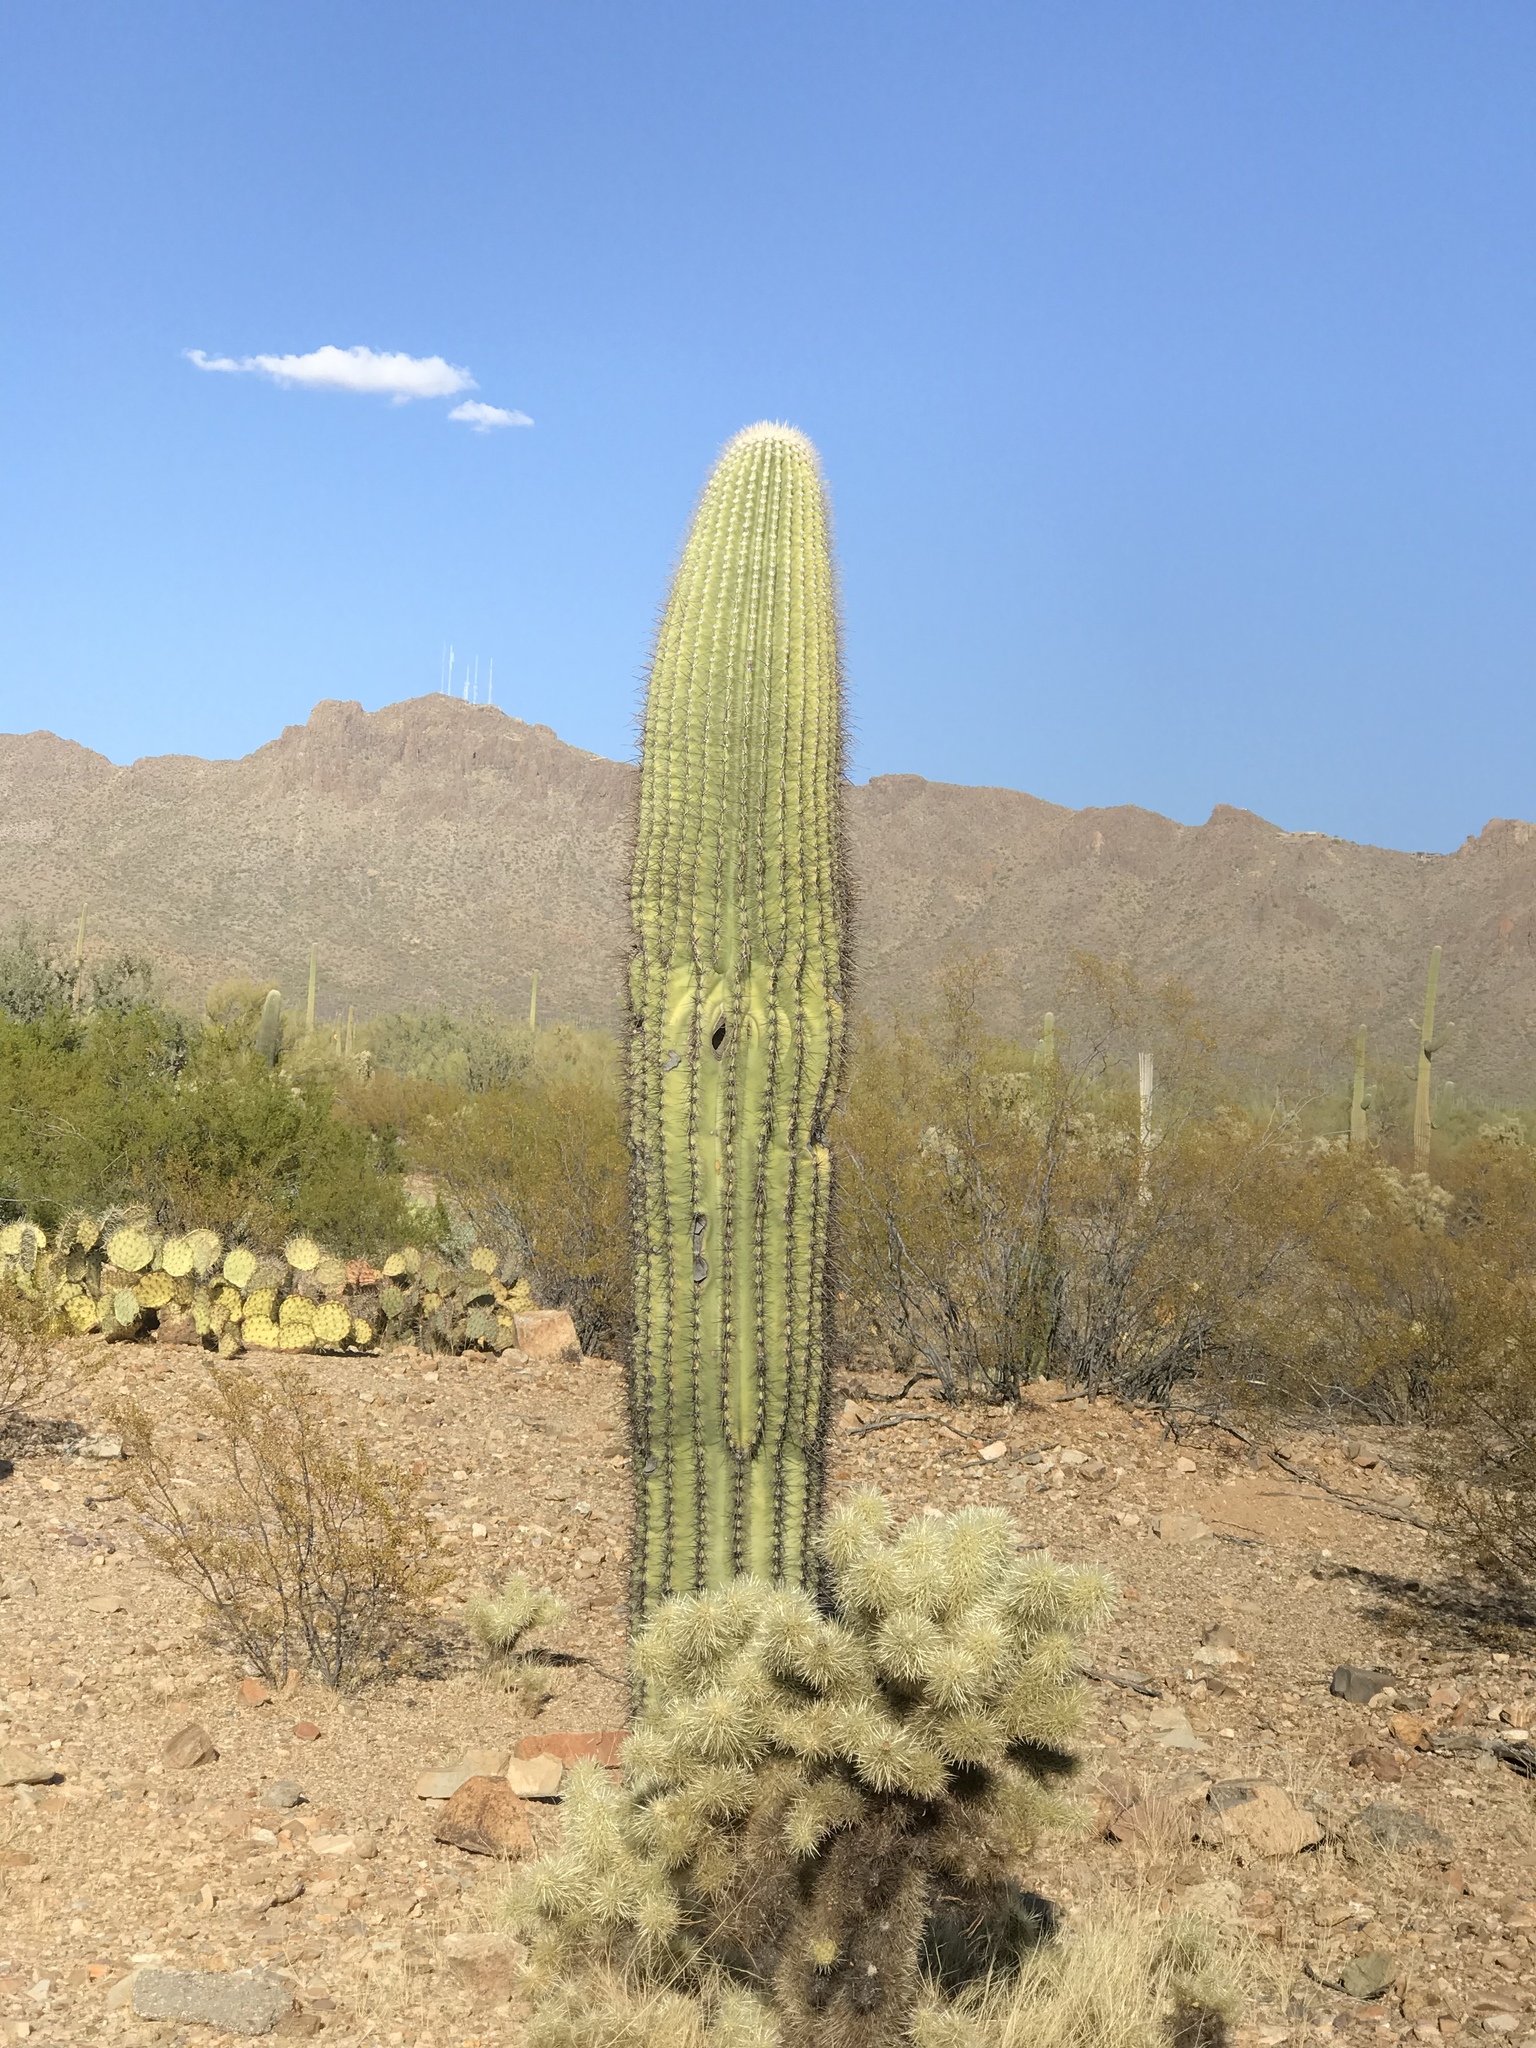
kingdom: Plantae
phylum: Tracheophyta
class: Magnoliopsida
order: Caryophyllales
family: Cactaceae
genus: Carnegiea
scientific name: Carnegiea gigantea
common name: Saguaro
